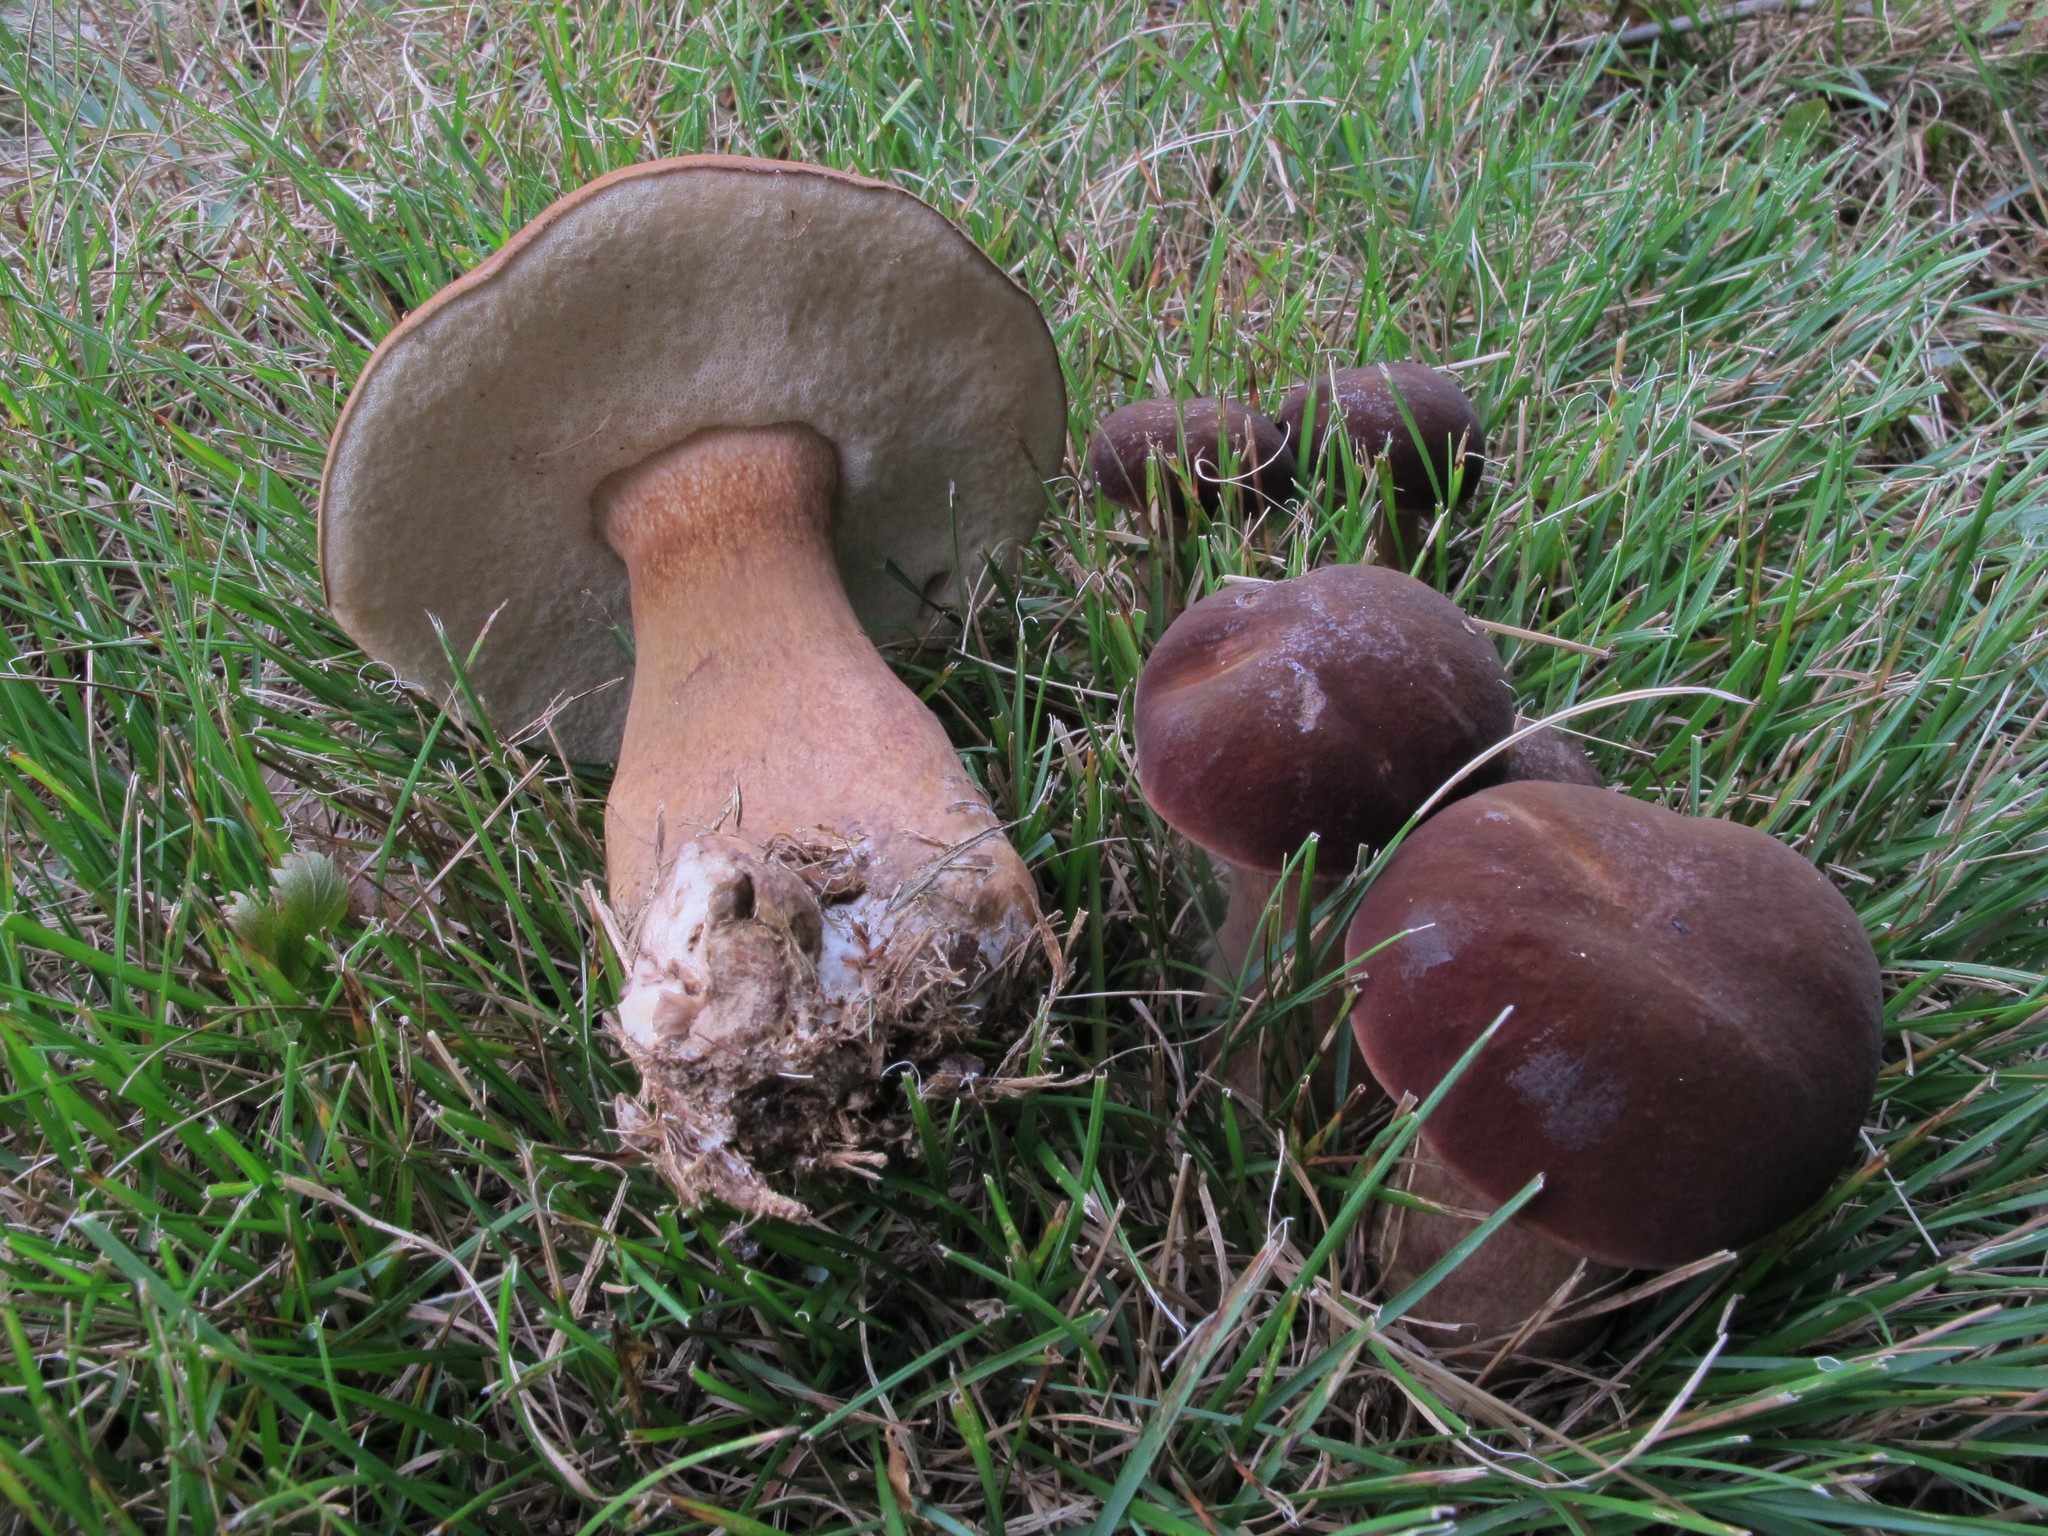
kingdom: Fungi
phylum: Basidiomycota
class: Agaricomycetes
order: Boletales
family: Boletaceae
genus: Tylopilus
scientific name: Tylopilus badiceps
